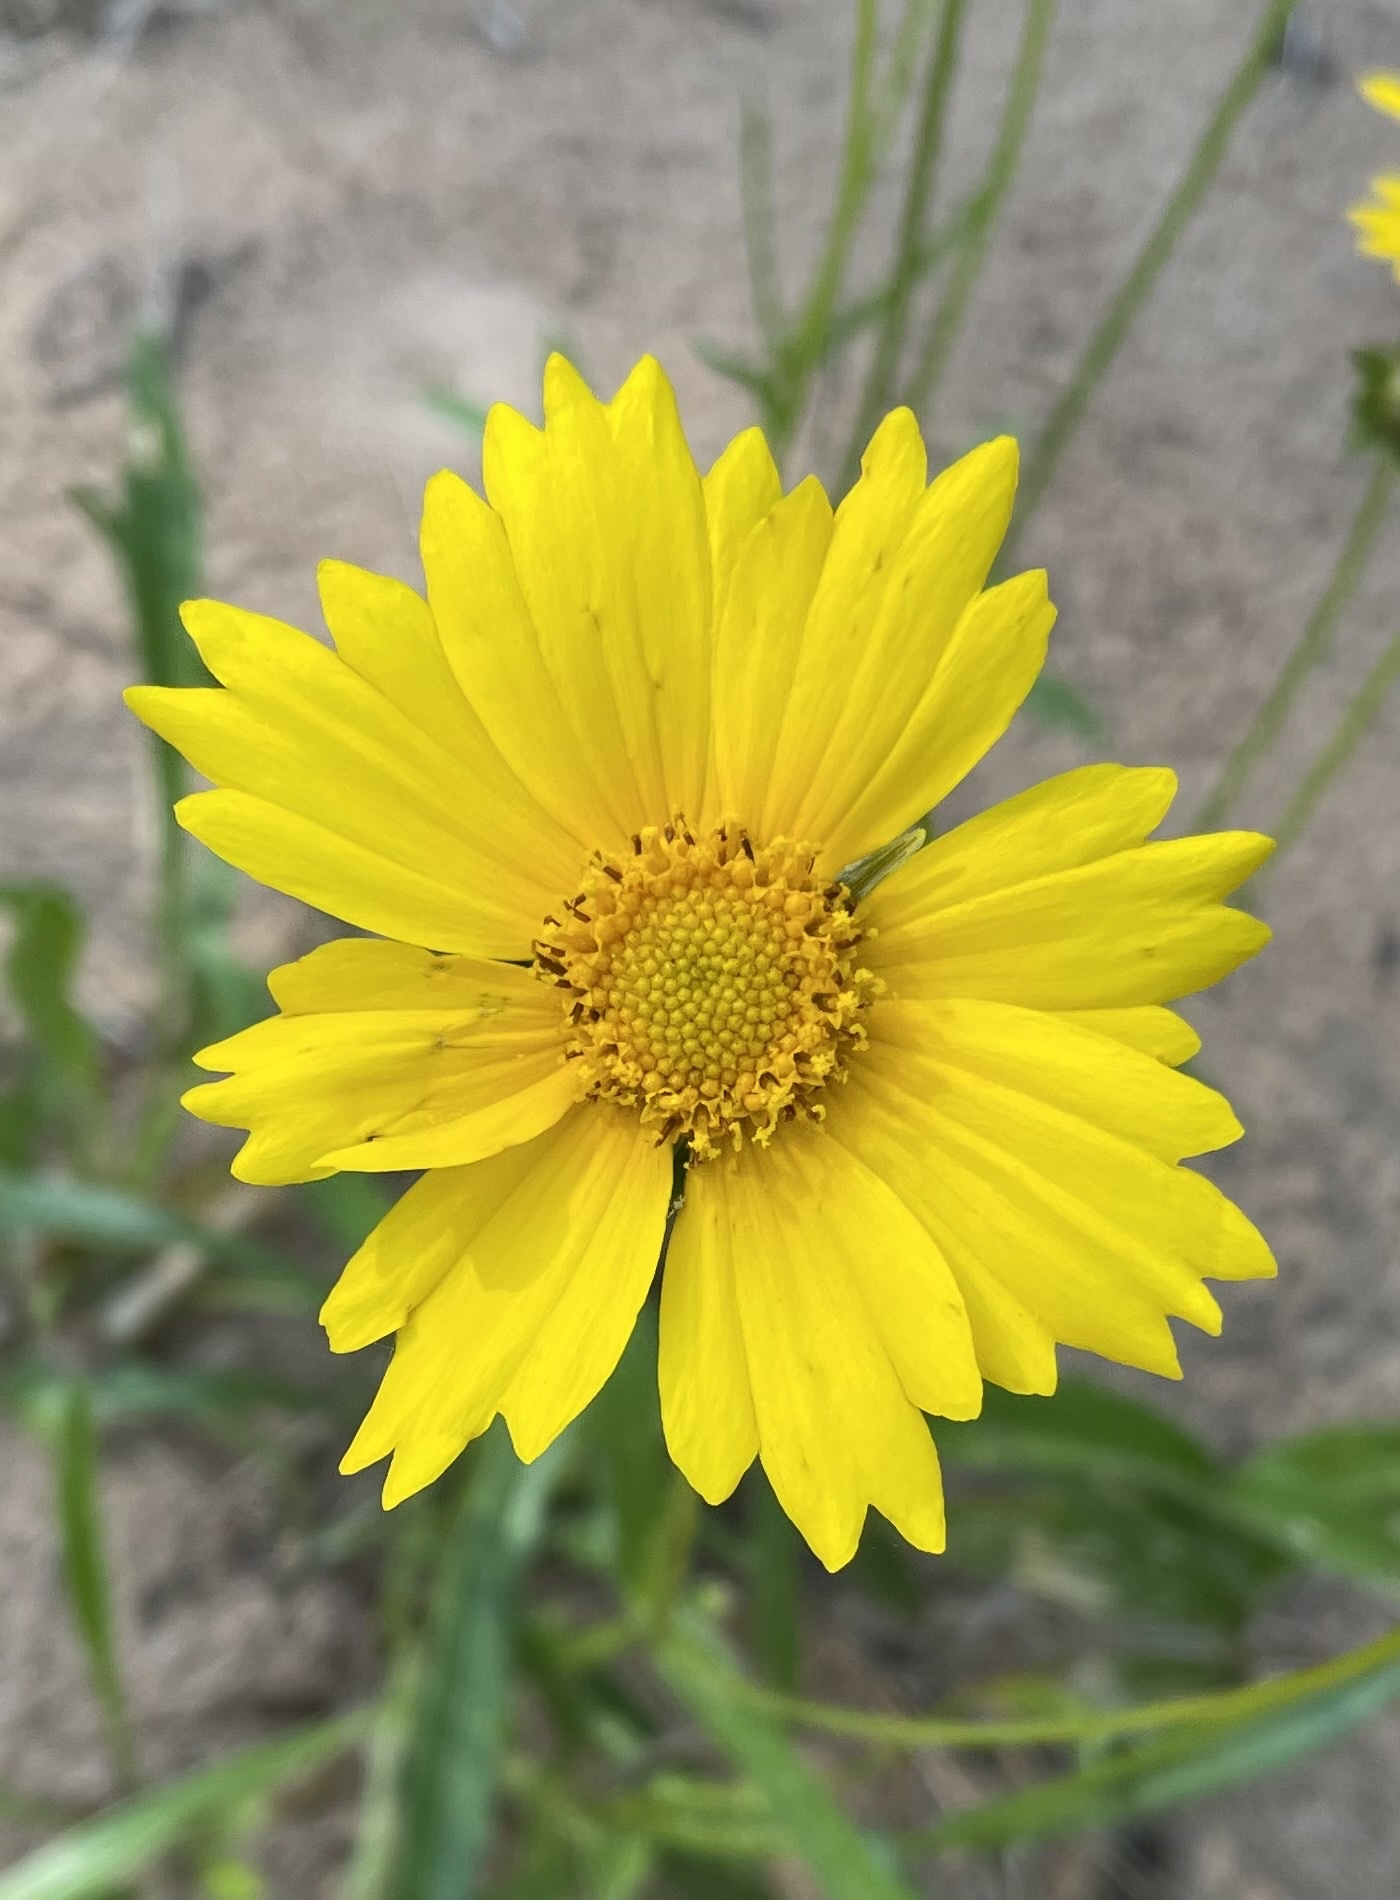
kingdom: Plantae
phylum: Tracheophyta
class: Magnoliopsida
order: Asterales
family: Asteraceae
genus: Coreopsis
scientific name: Coreopsis lanceolata
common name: Garden coreopsis
